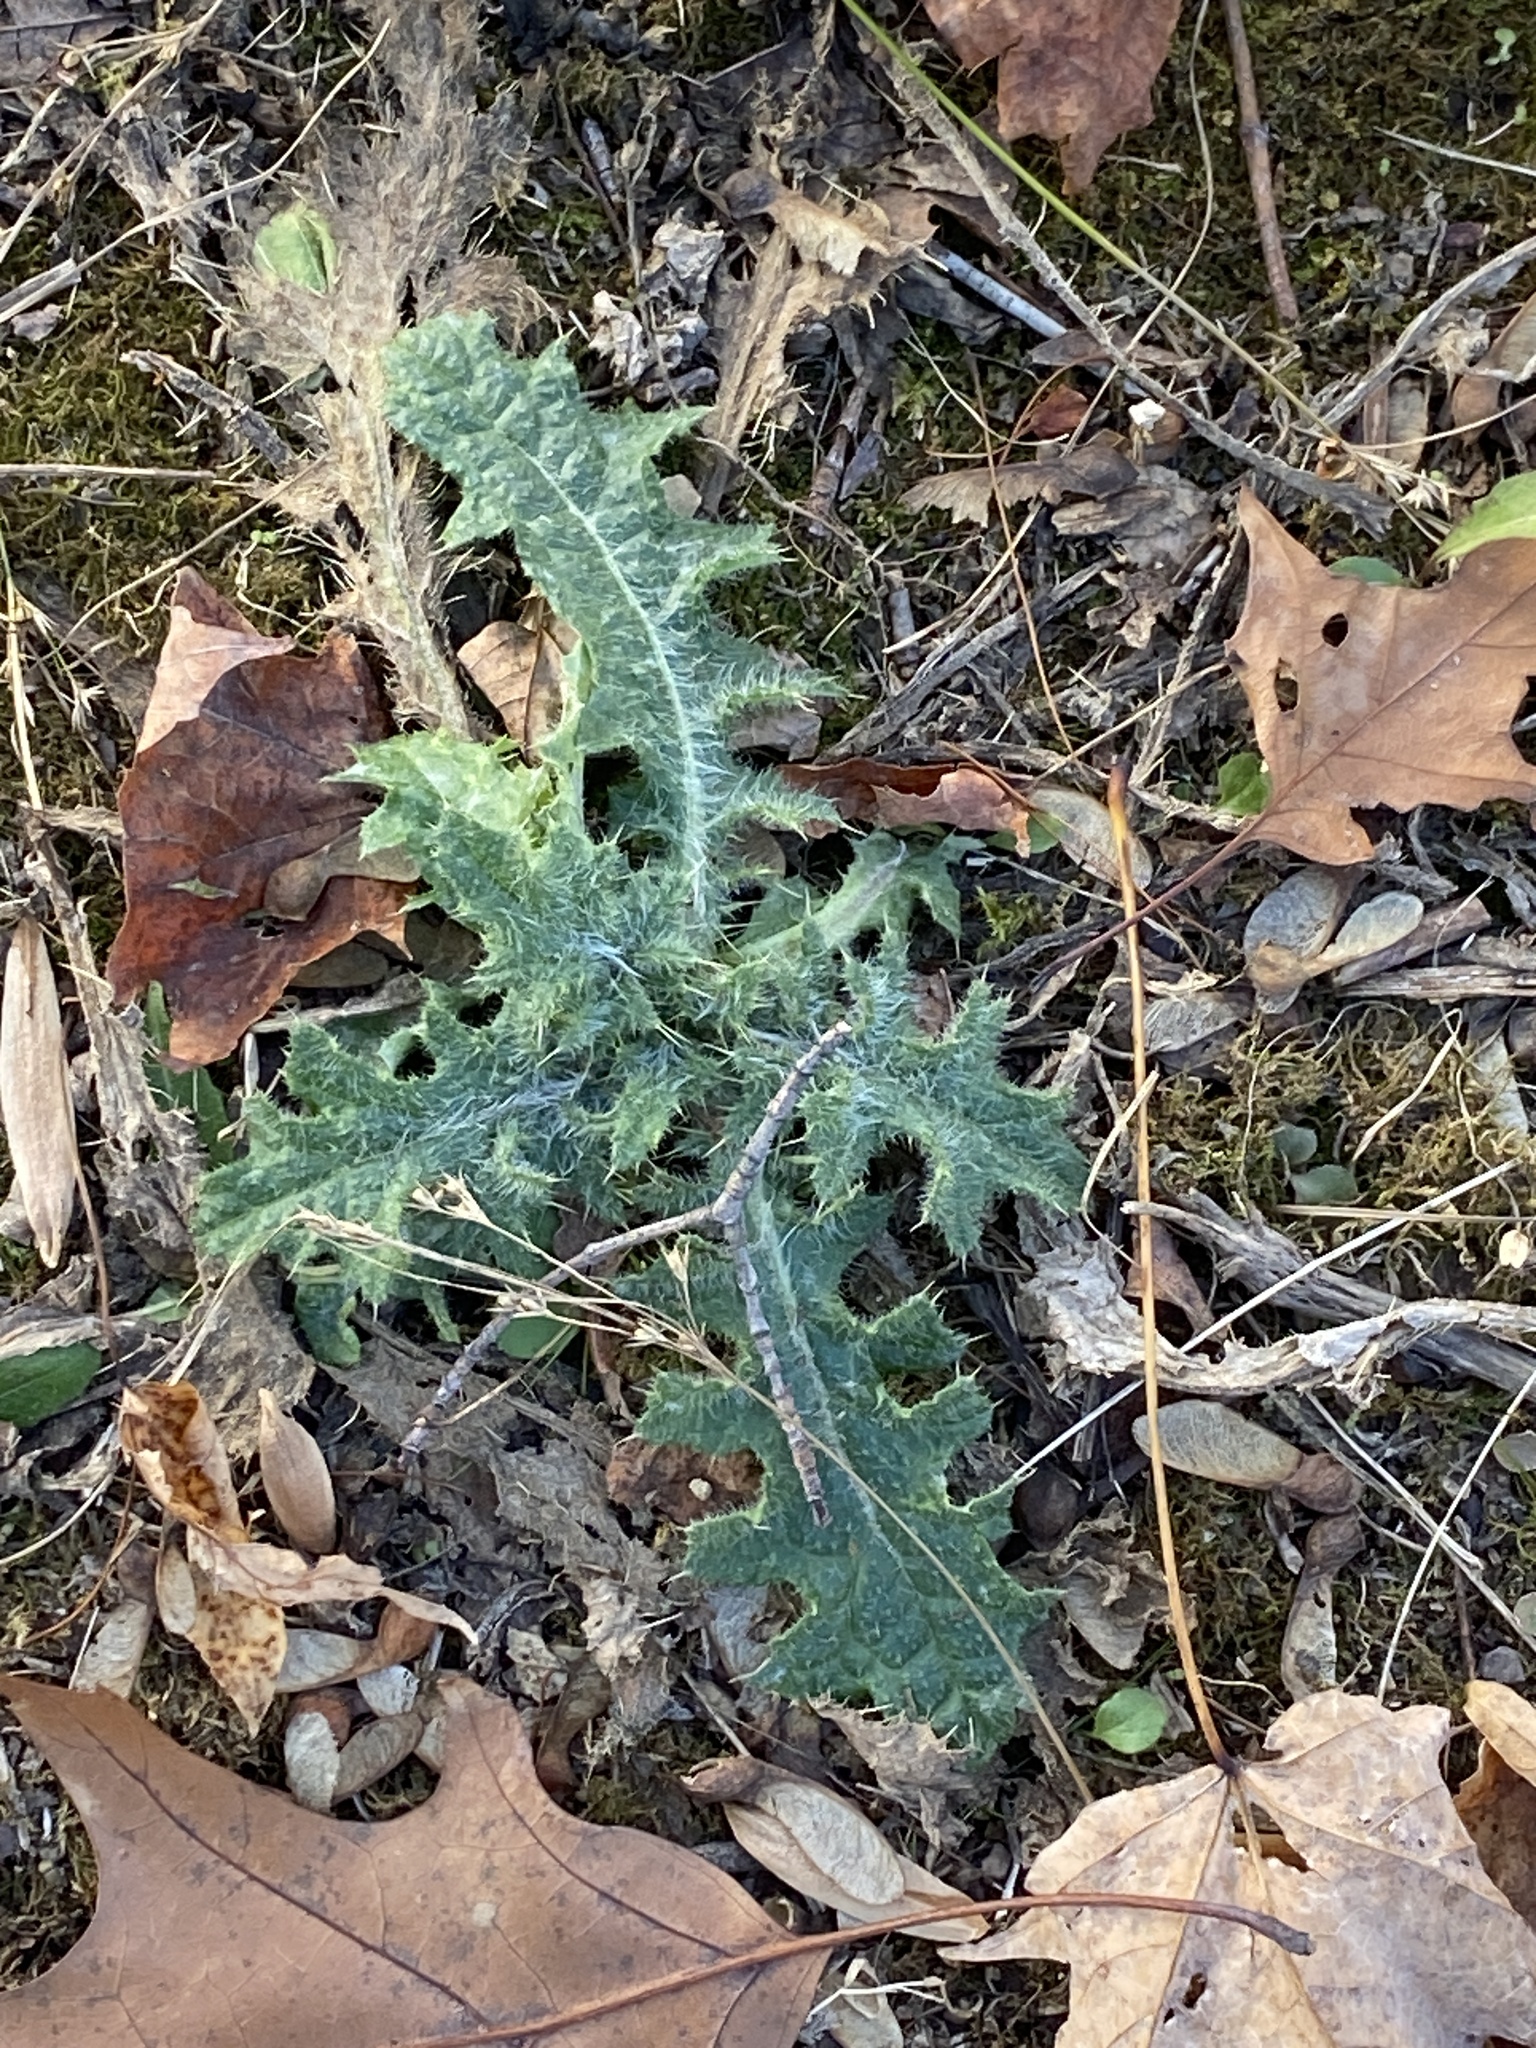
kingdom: Plantae
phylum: Tracheophyta
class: Magnoliopsida
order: Asterales
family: Asteraceae
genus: Cirsium
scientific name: Cirsium vulgare
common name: Bull thistle
